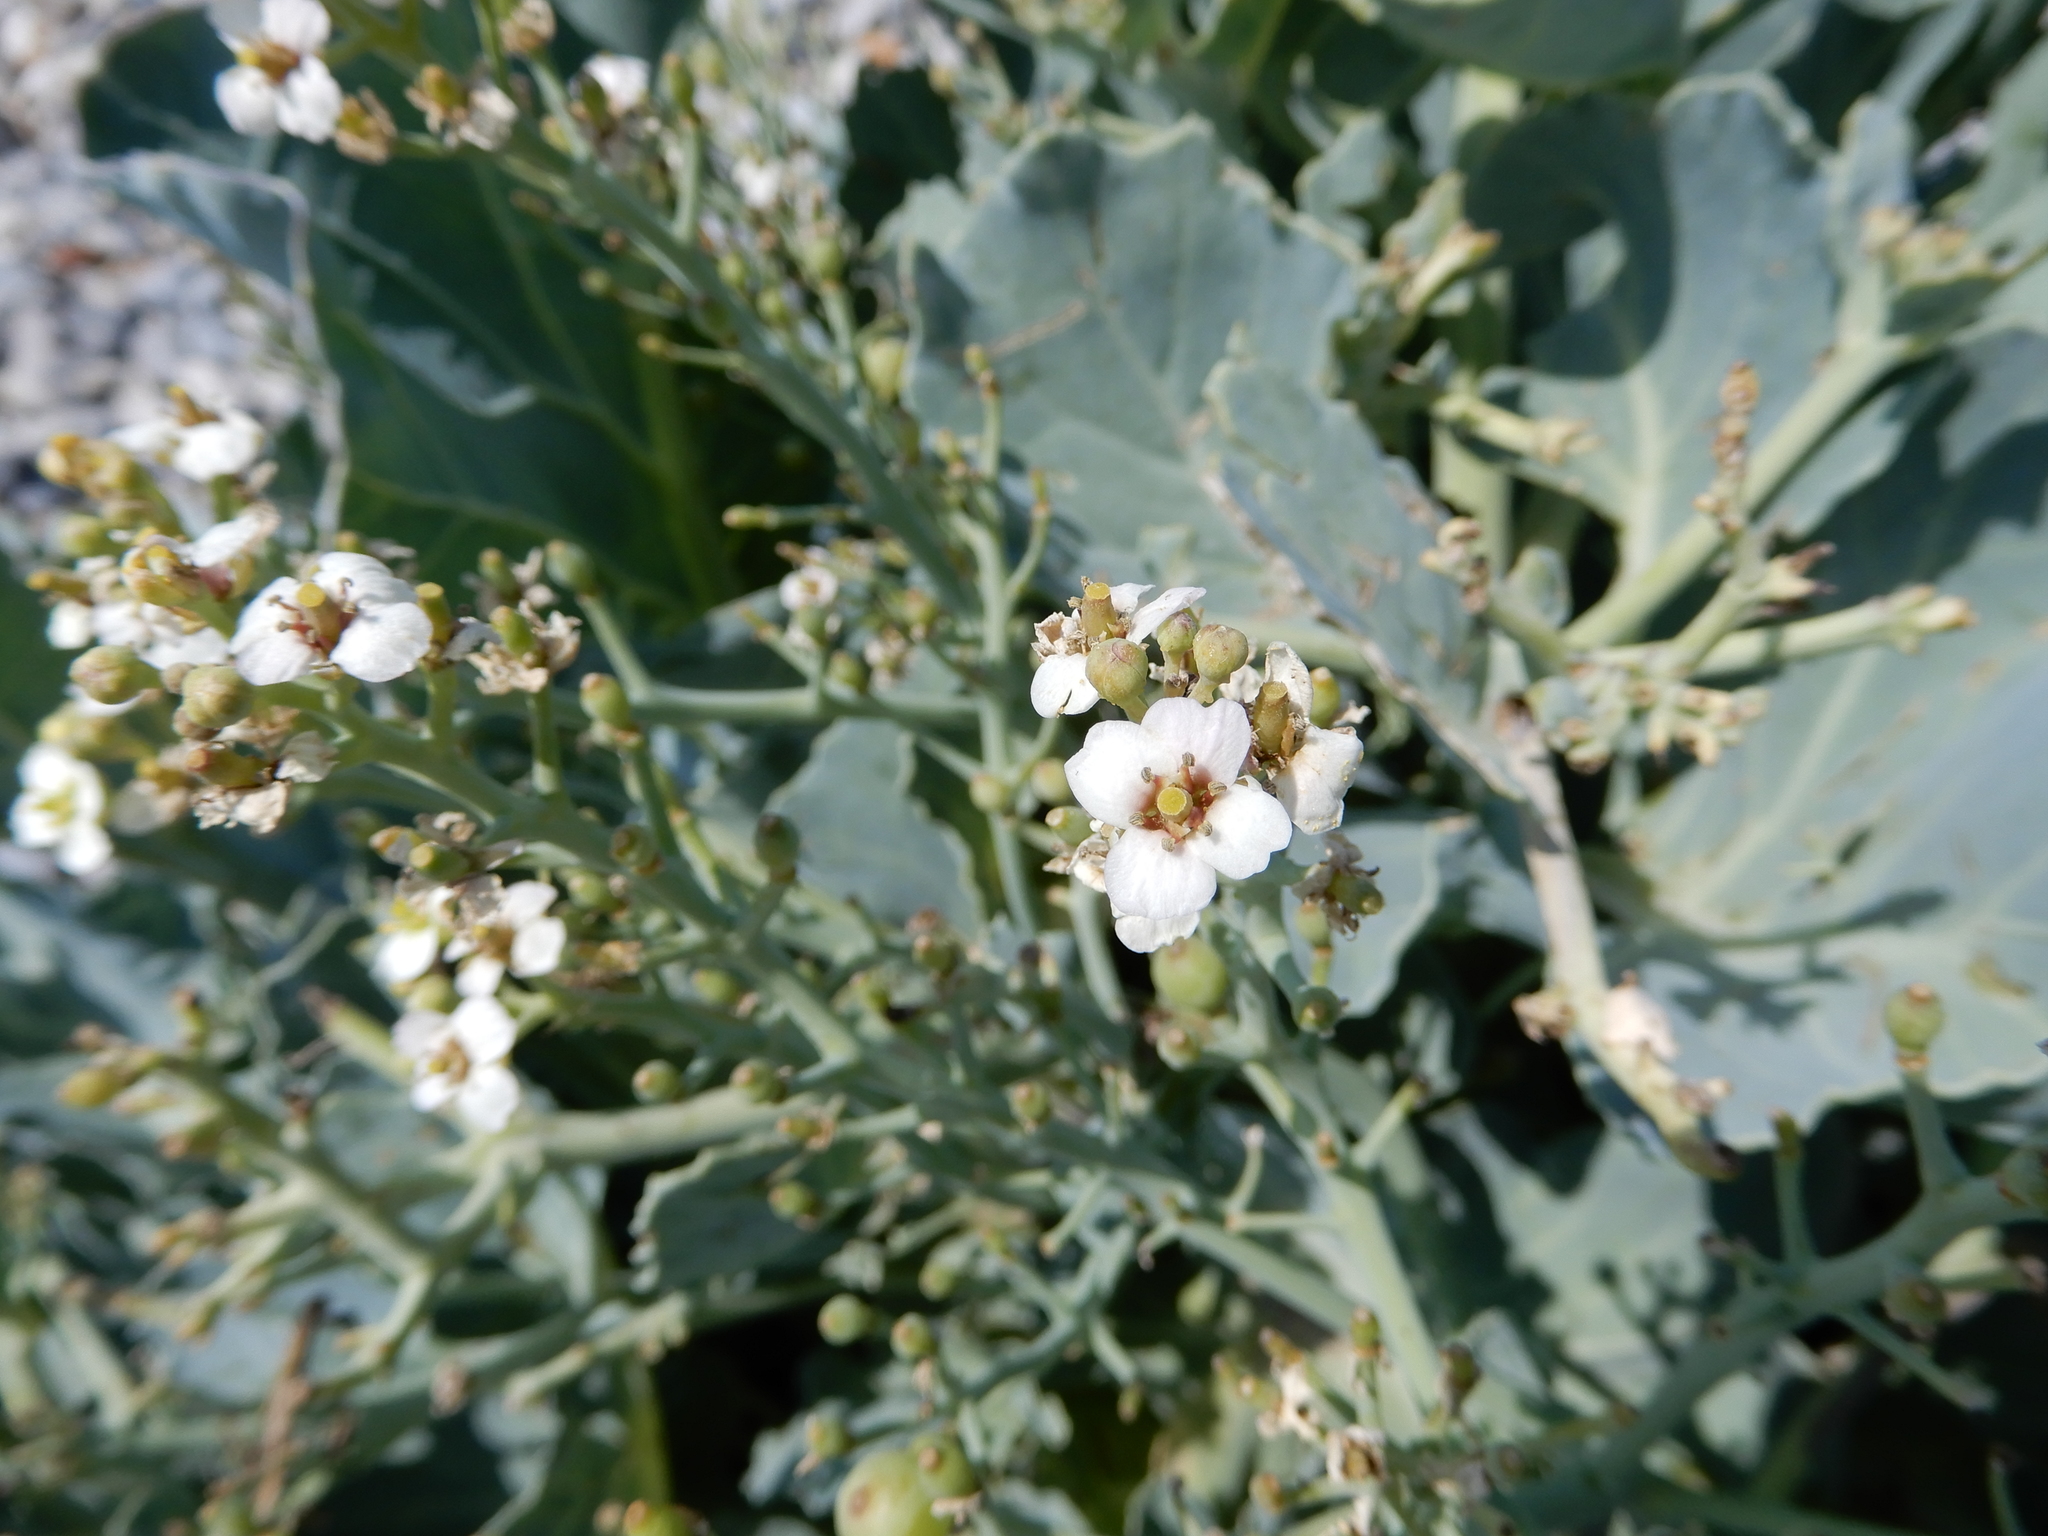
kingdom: Plantae
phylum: Tracheophyta
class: Magnoliopsida
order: Brassicales
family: Brassicaceae
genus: Crambe
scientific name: Crambe maritima
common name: Sea-kale
